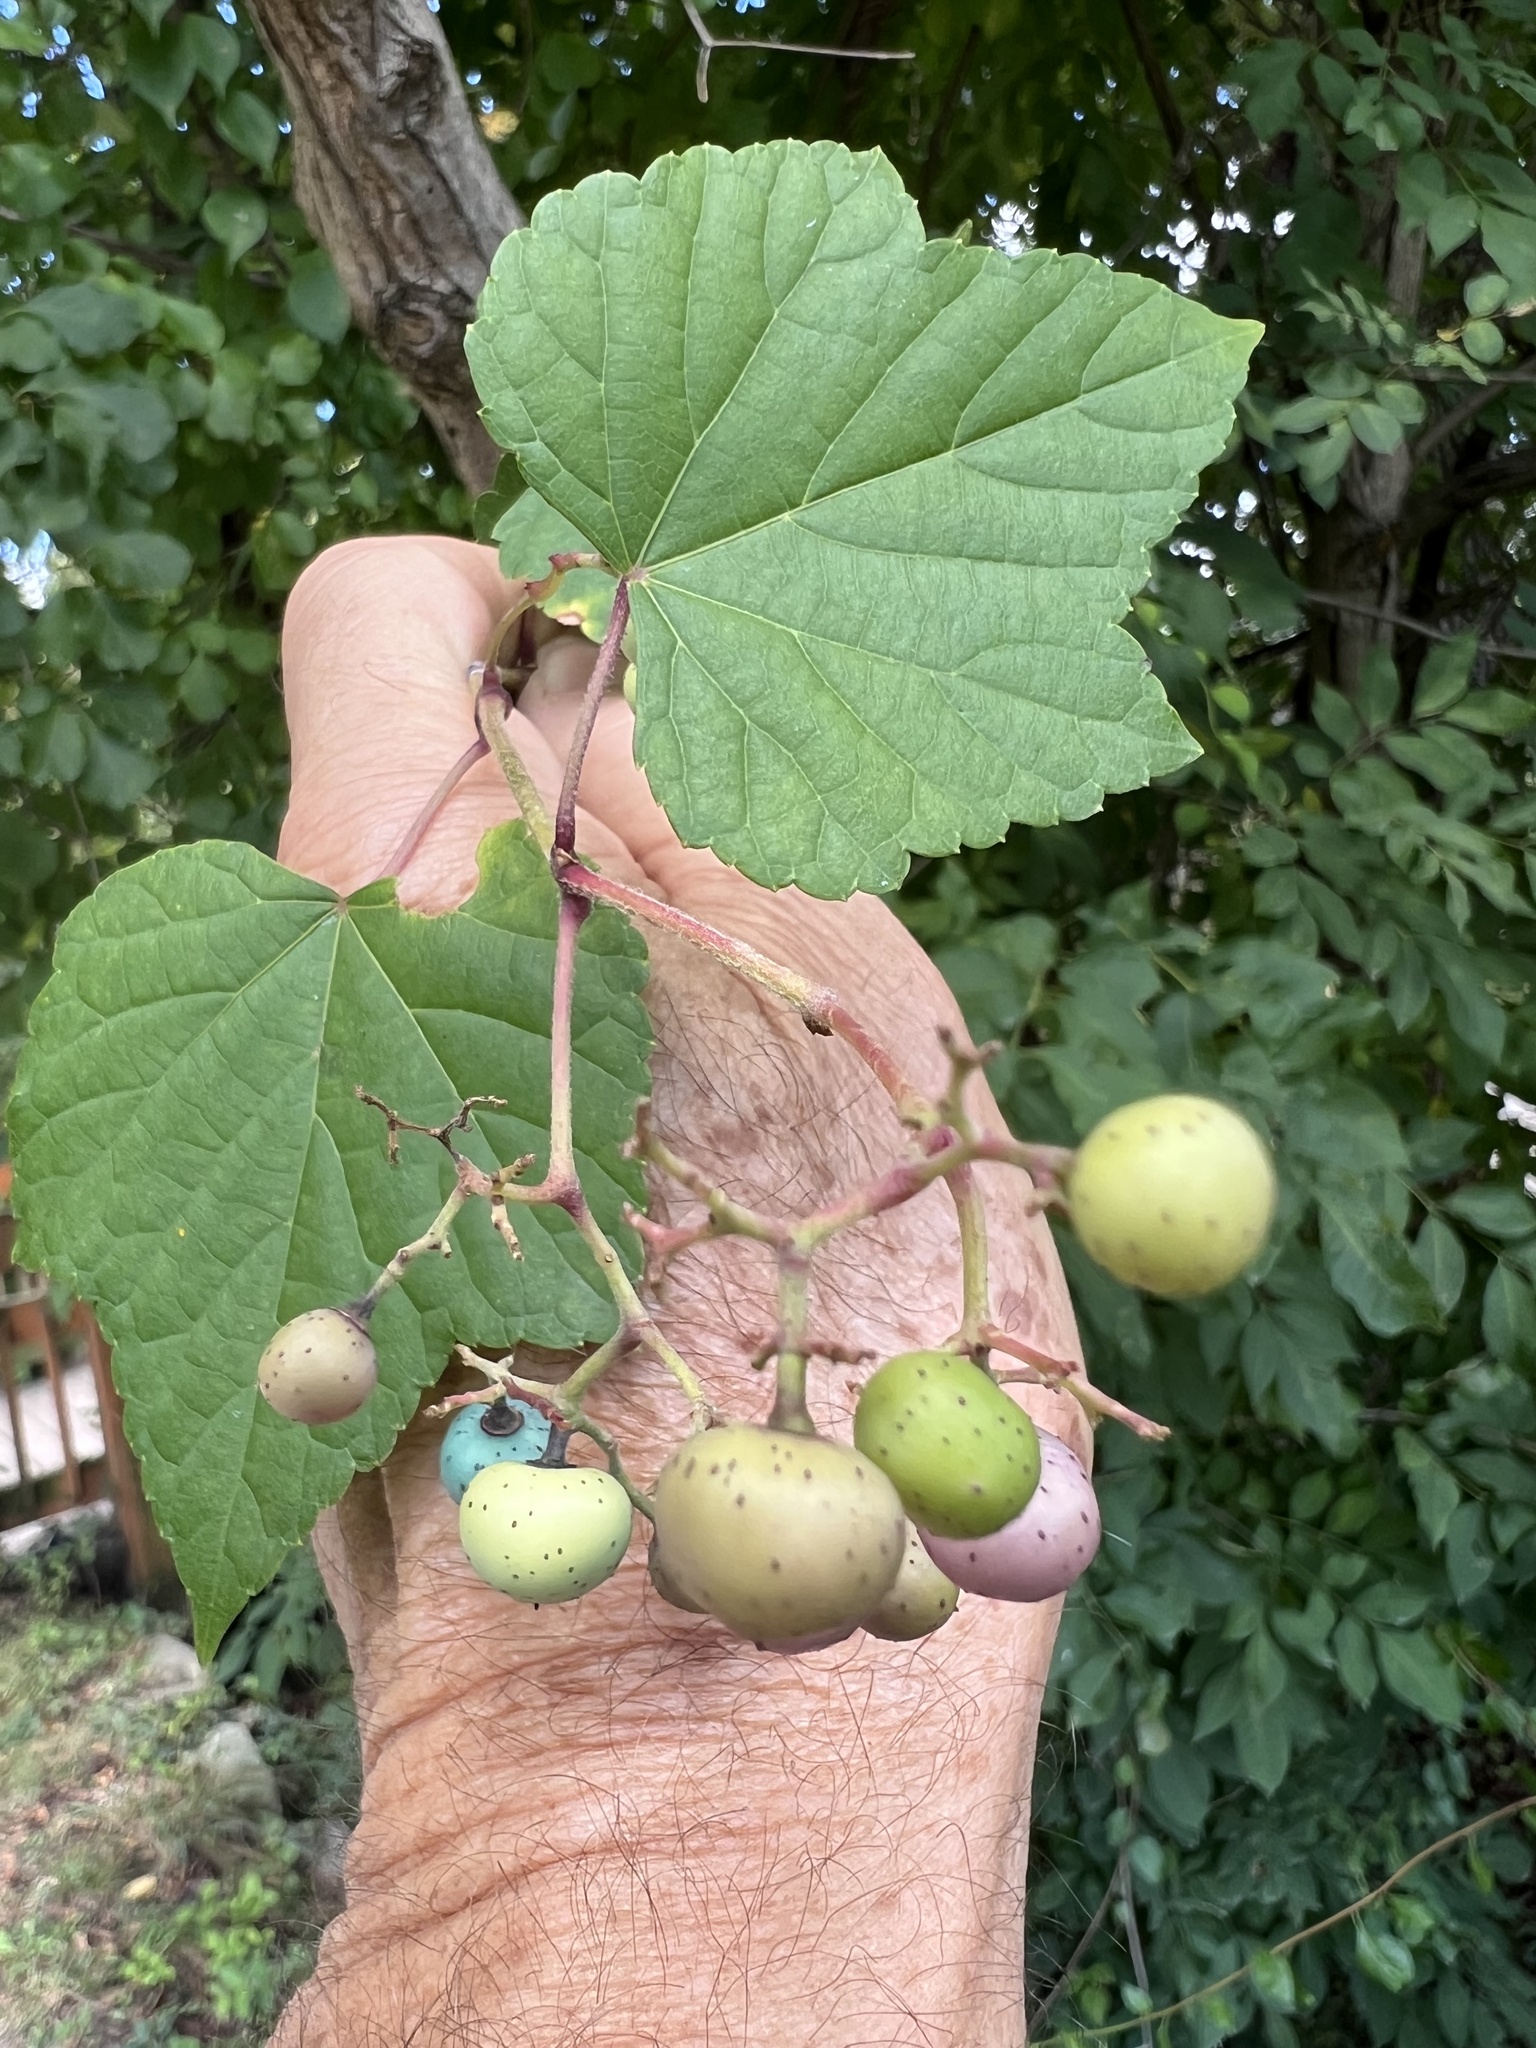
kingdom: Plantae
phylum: Tracheophyta
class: Magnoliopsida
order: Vitales
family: Vitaceae
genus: Ampelopsis
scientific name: Ampelopsis glandulosa
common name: Amur peppervine
